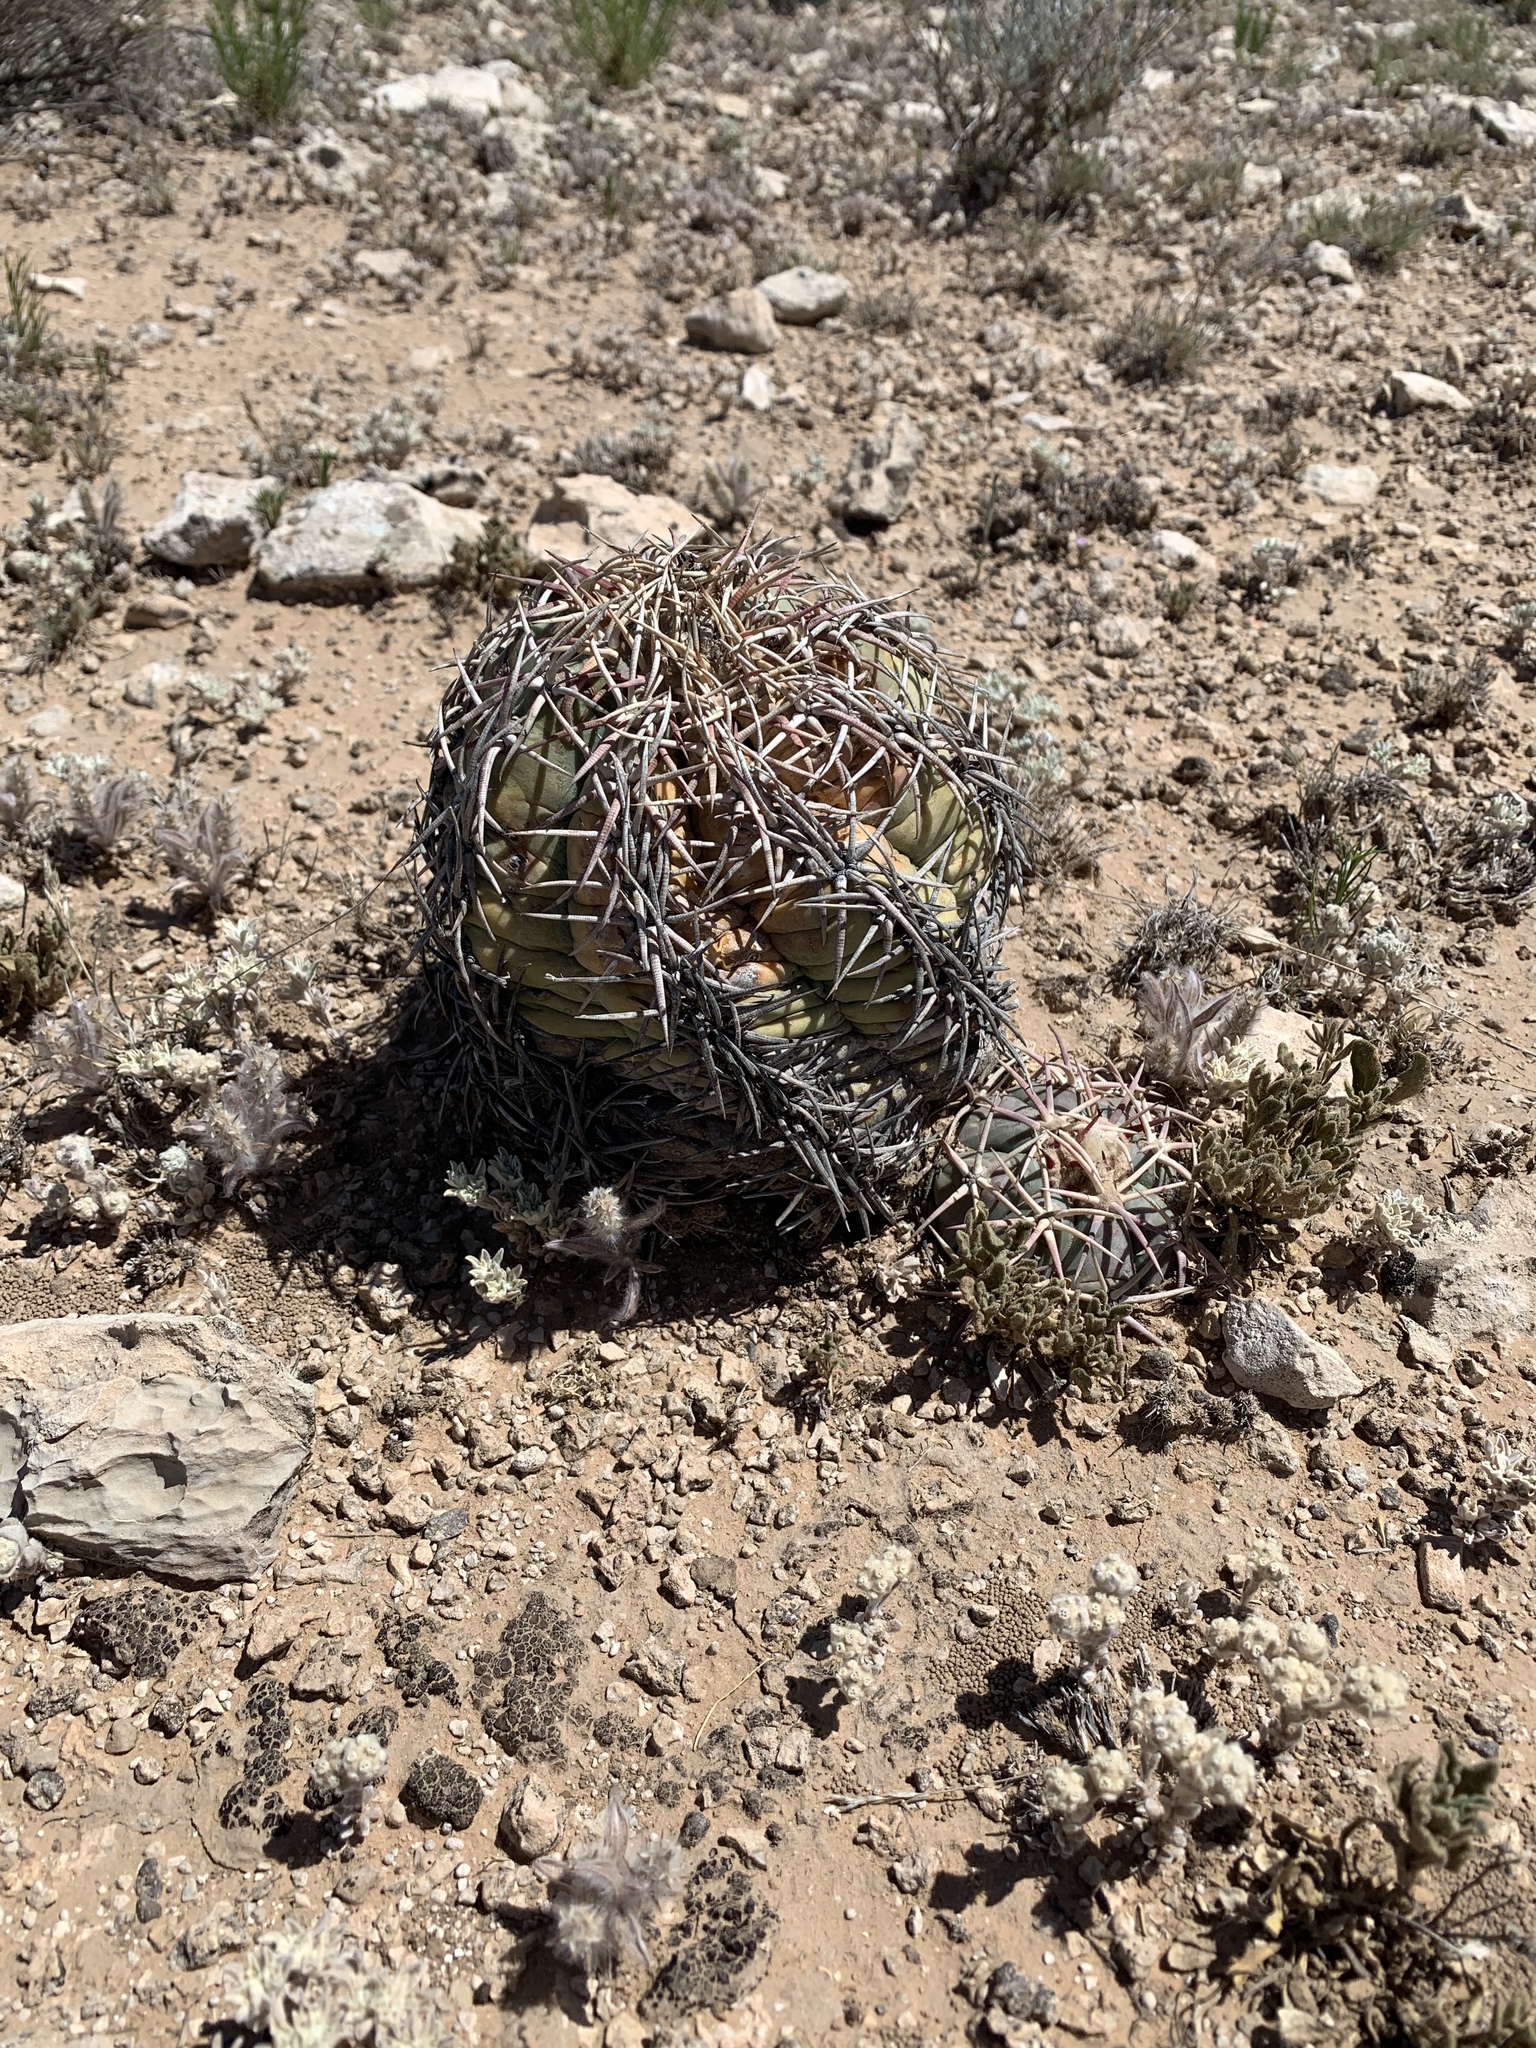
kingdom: Plantae
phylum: Tracheophyta
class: Magnoliopsida
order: Caryophyllales
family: Cactaceae
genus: Echinocactus
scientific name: Echinocactus horizonthalonius
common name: Devilshead
